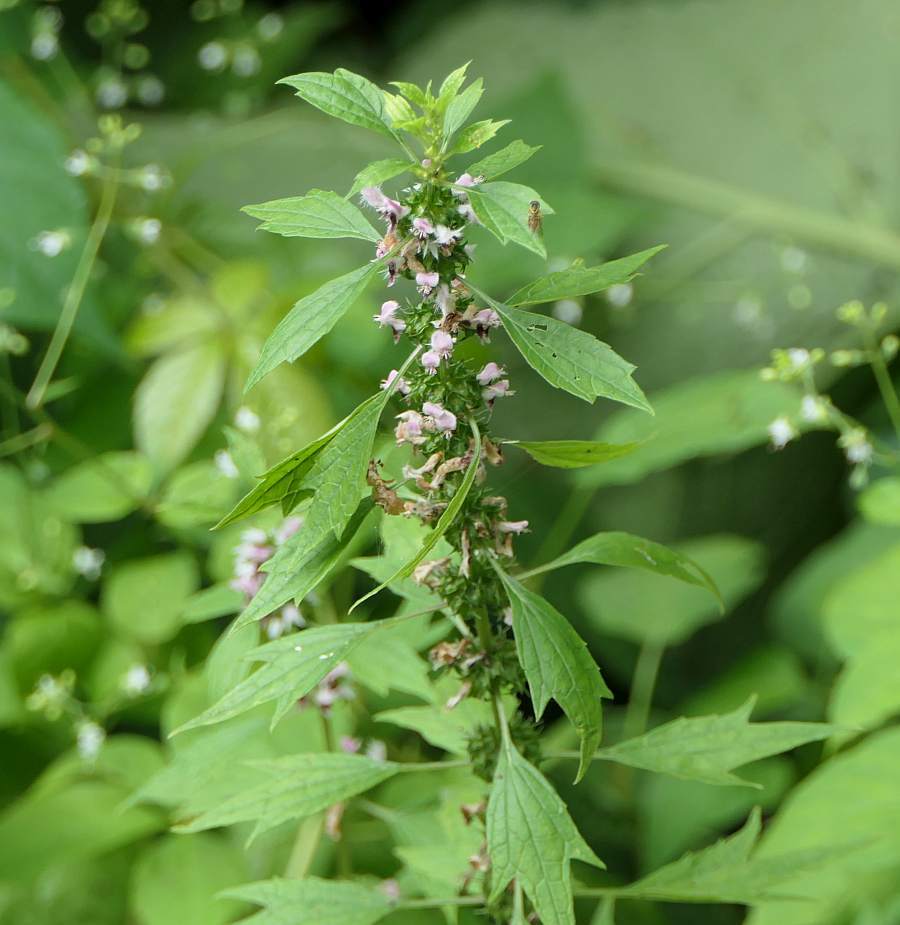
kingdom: Plantae
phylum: Tracheophyta
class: Magnoliopsida
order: Lamiales
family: Lamiaceae
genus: Leonurus
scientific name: Leonurus cardiaca
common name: Motherwort
